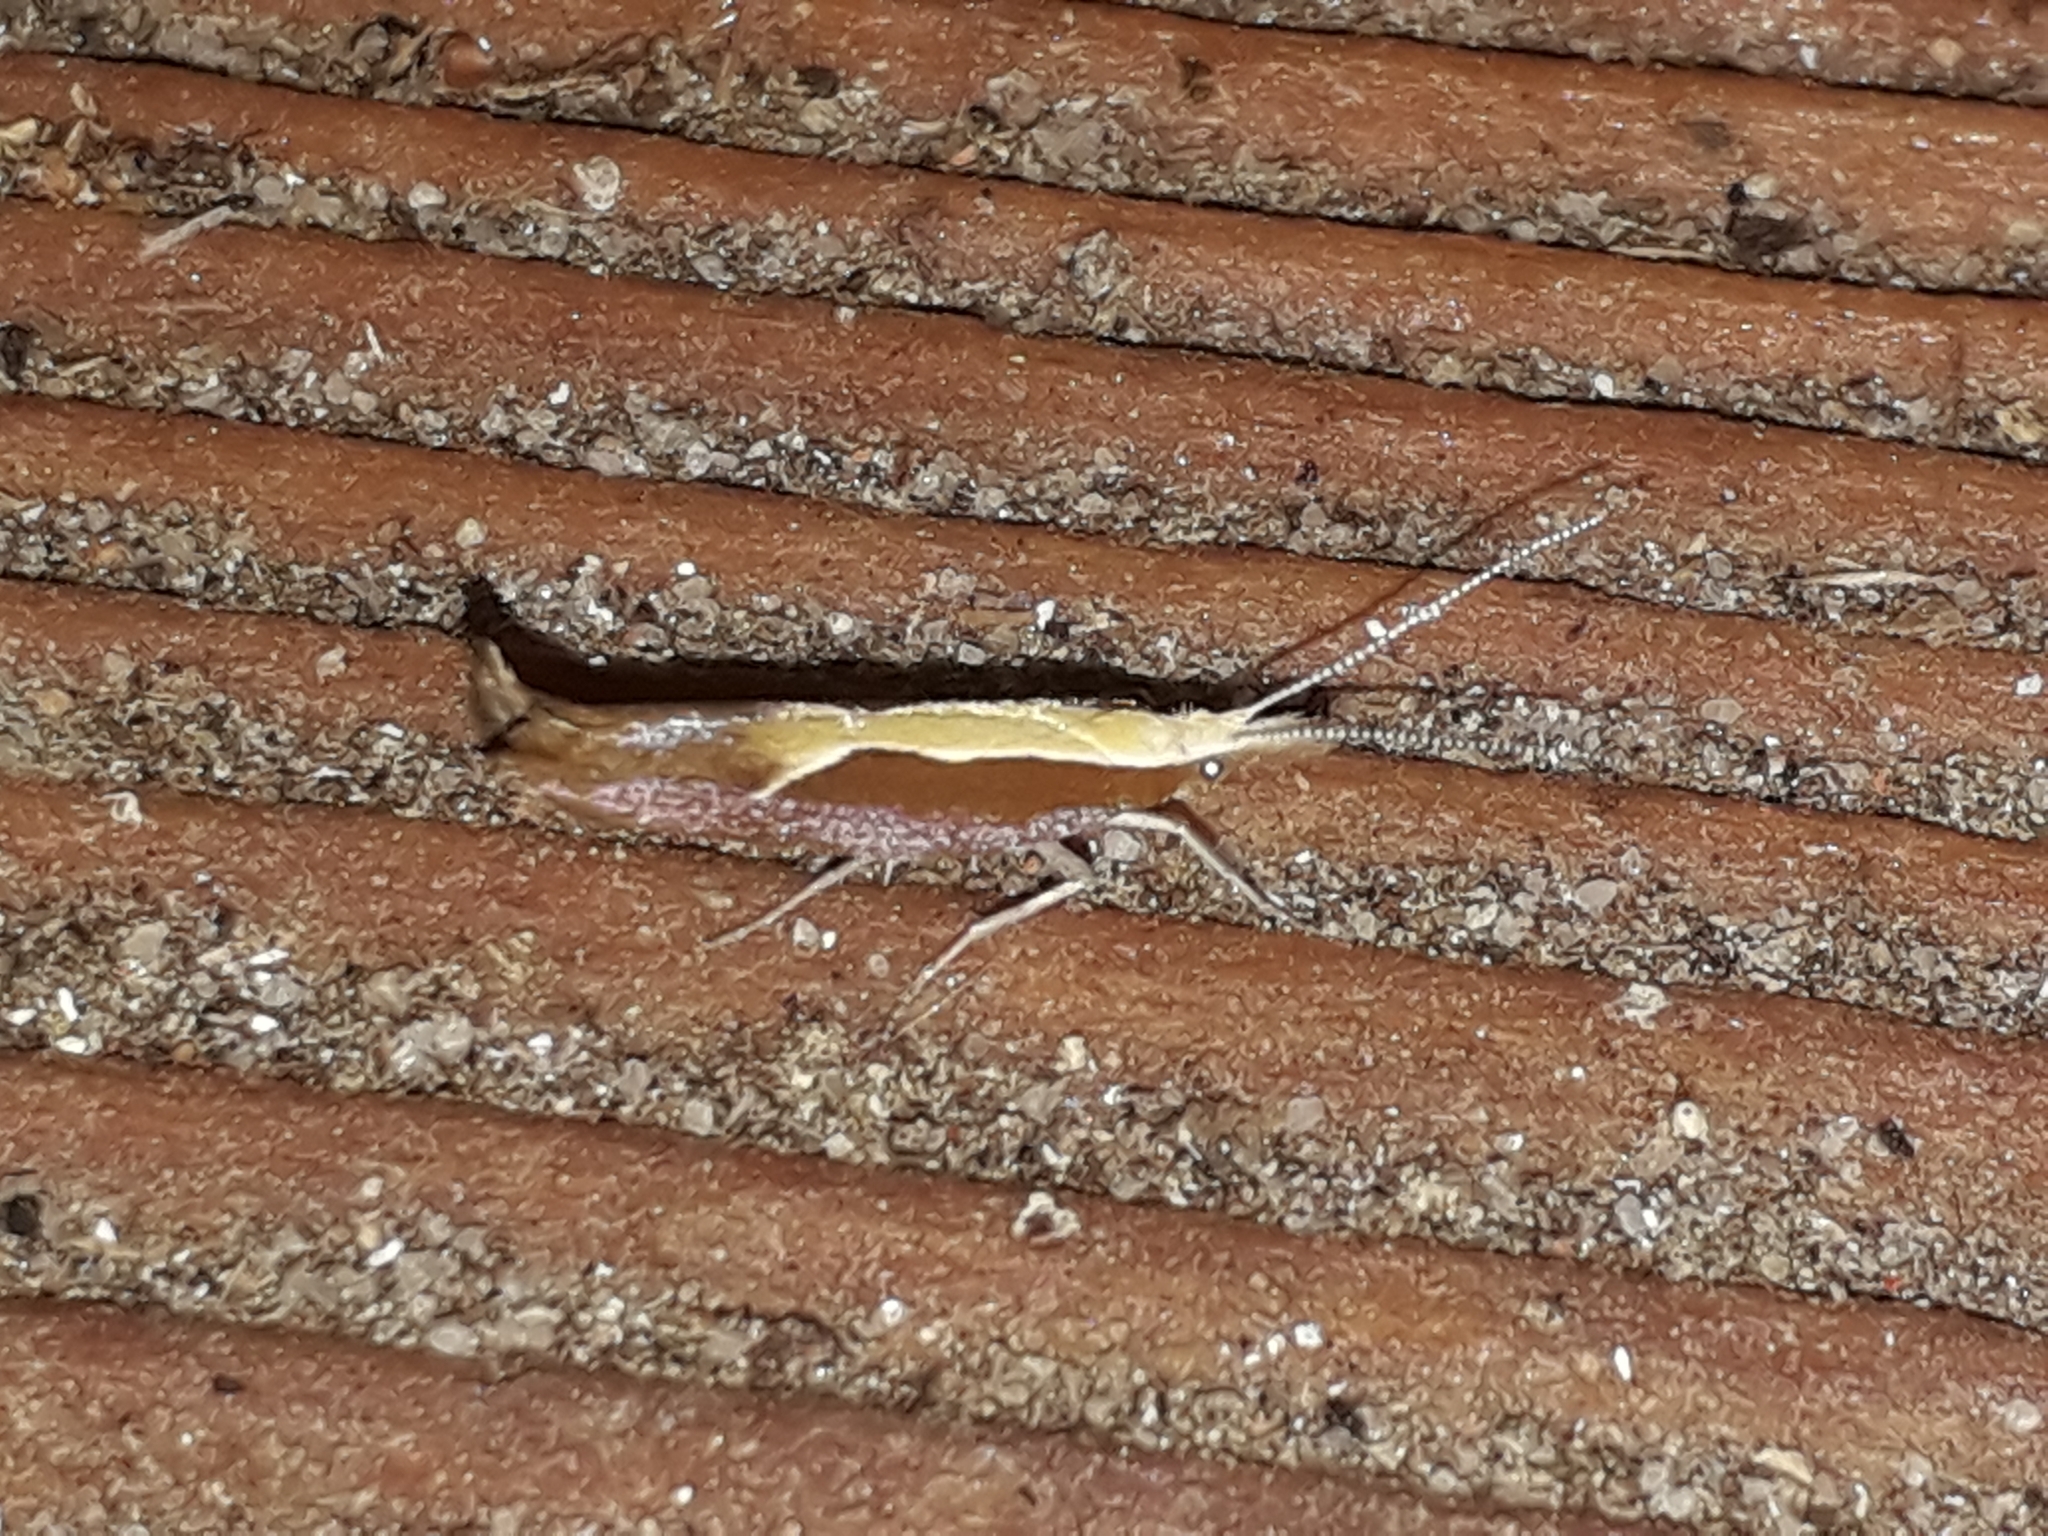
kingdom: Animalia
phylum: Arthropoda
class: Insecta
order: Lepidoptera
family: Ypsolophidae
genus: Ypsolopha
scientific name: Ypsolopha dentella
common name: Honeysuckle moth
